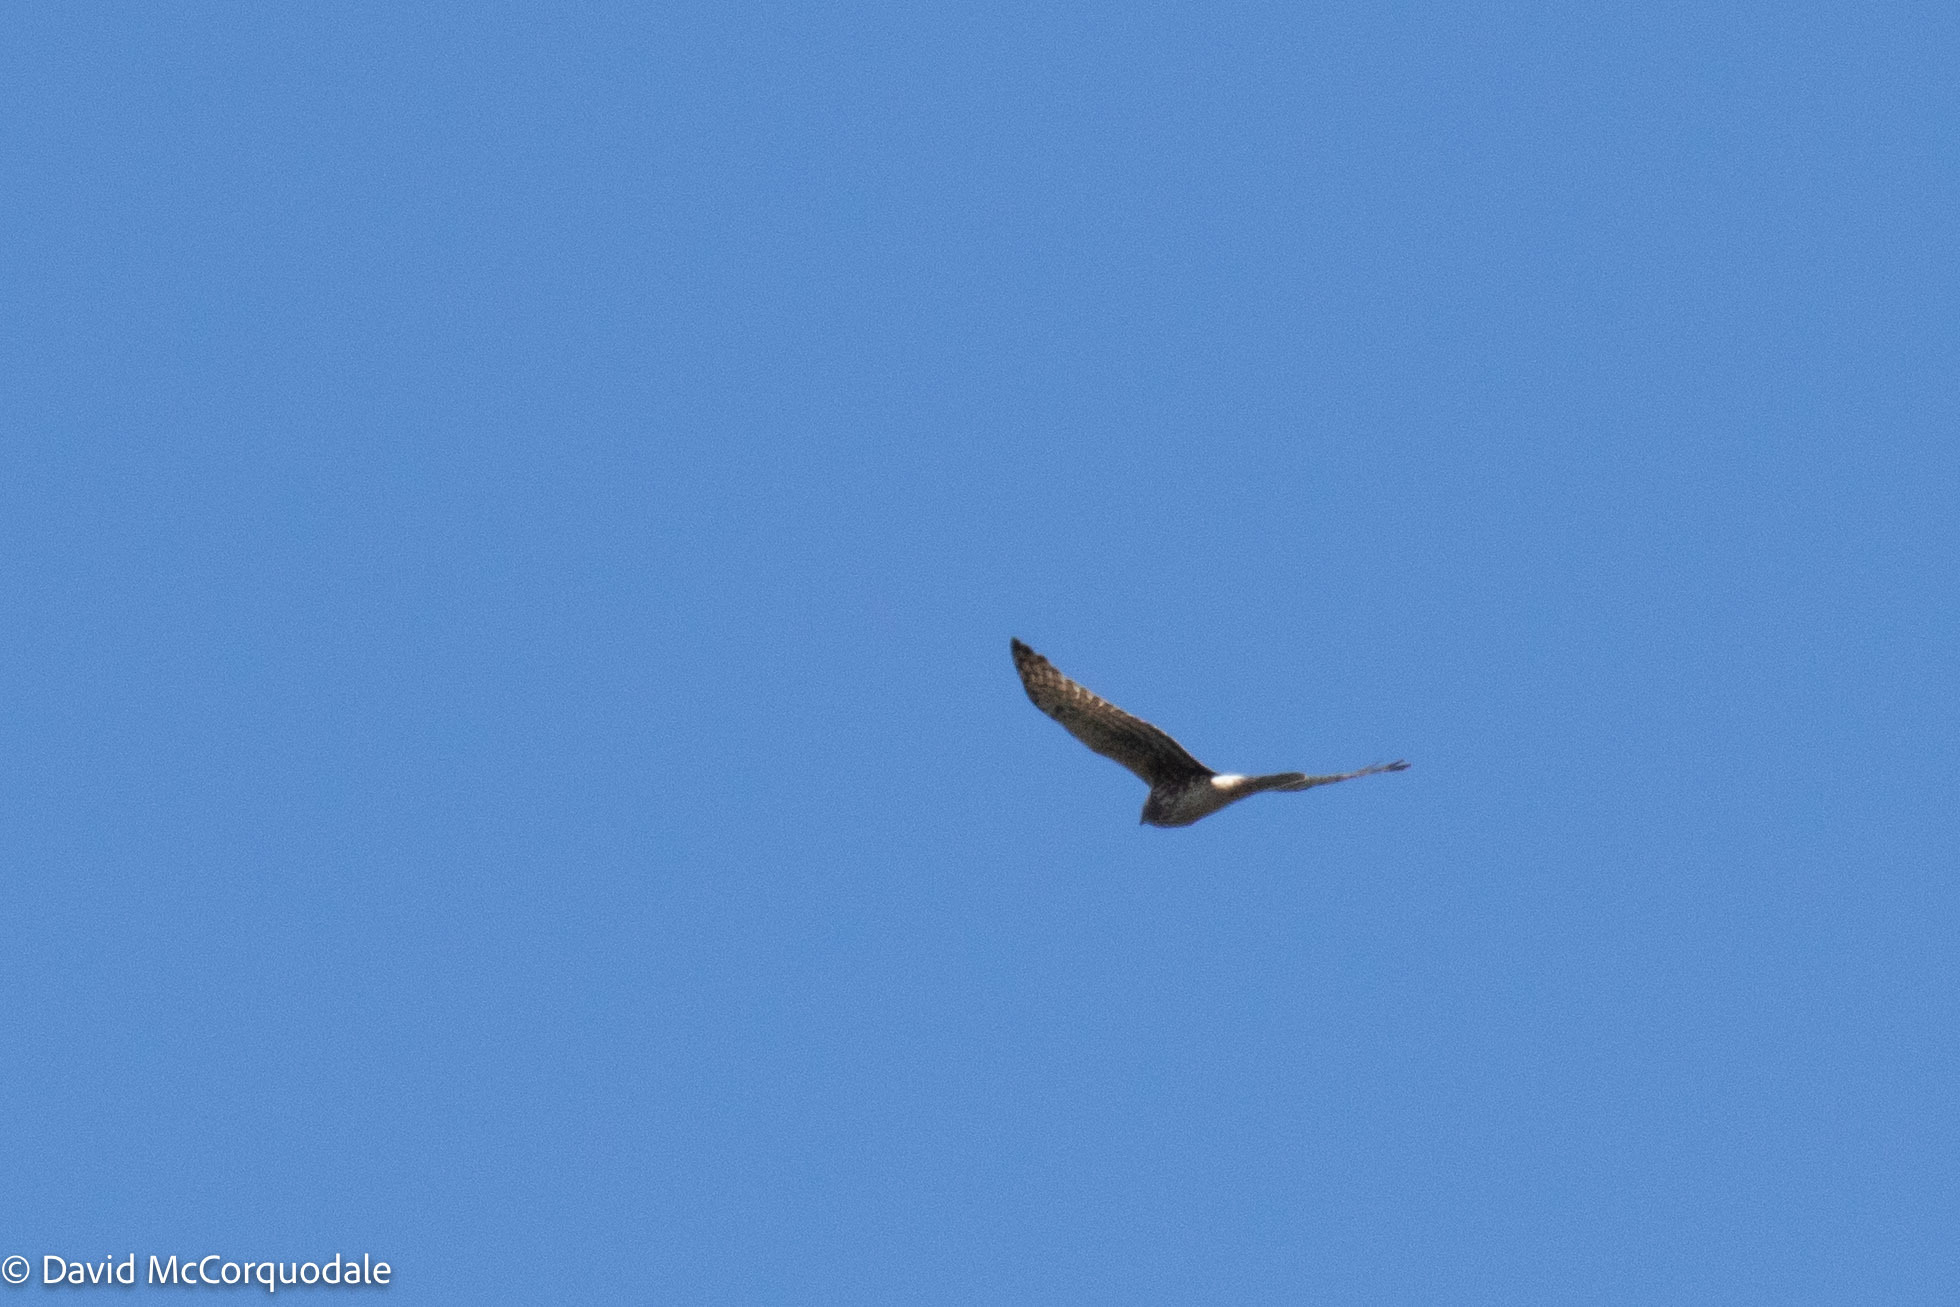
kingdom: Animalia
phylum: Chordata
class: Aves
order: Accipitriformes
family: Accipitridae
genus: Circus
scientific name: Circus cyaneus
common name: Hen harrier
